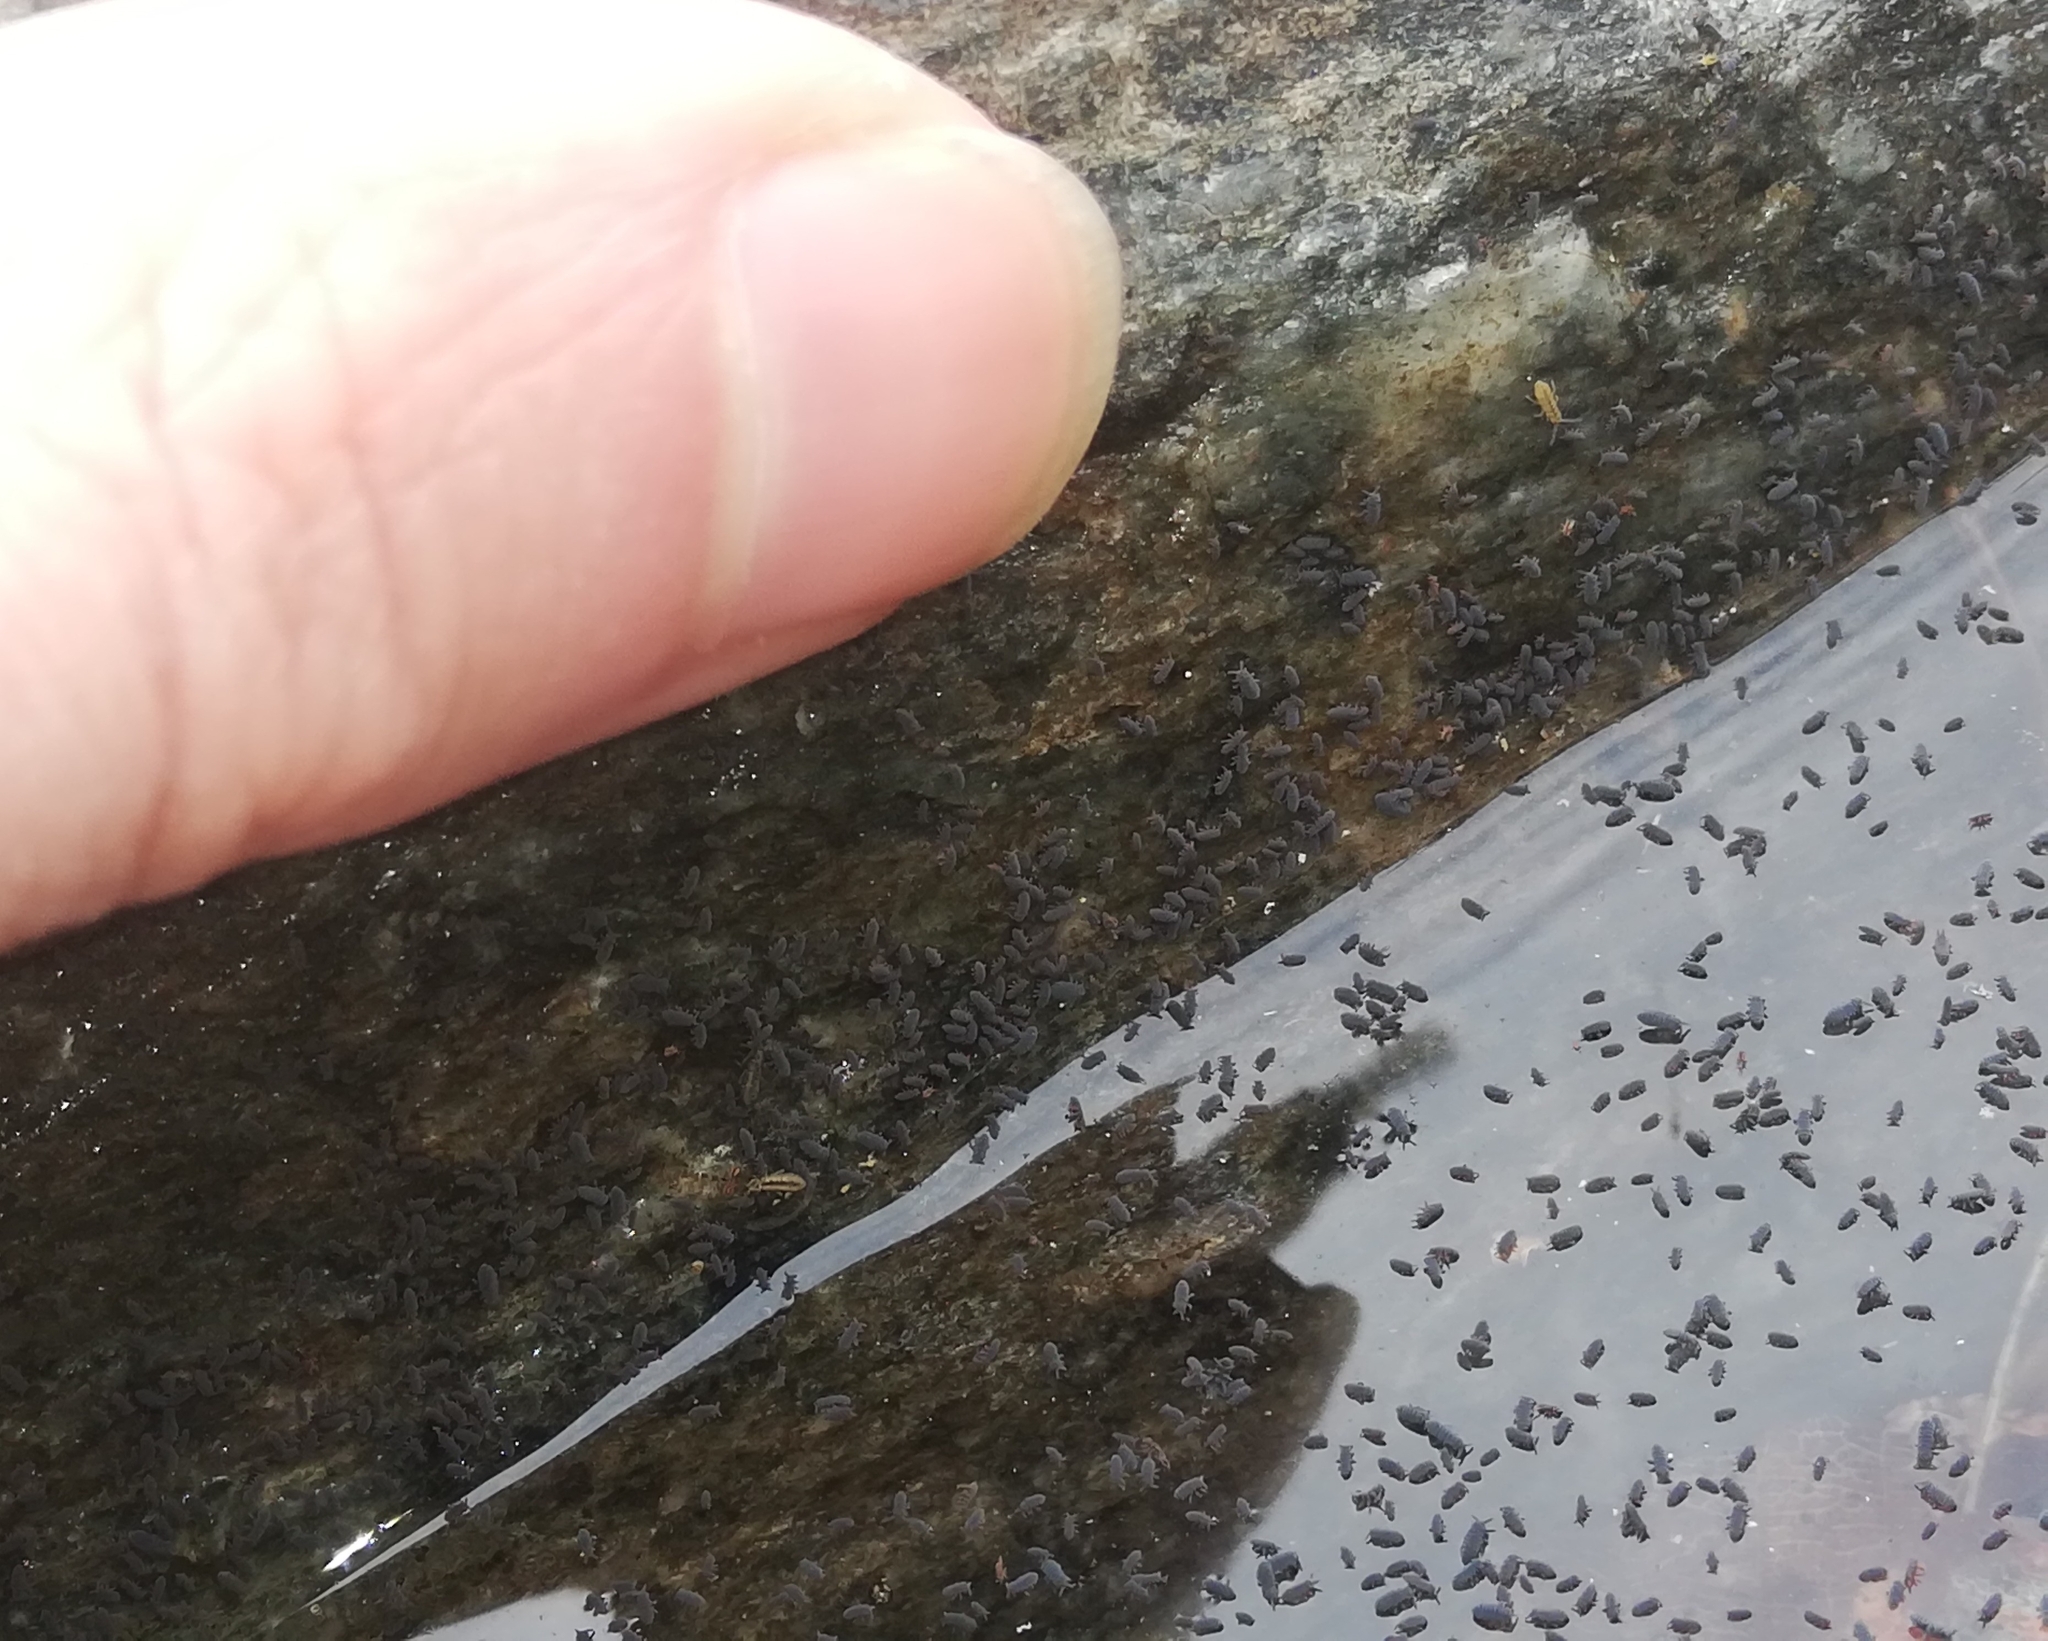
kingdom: Animalia
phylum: Arthropoda
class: Collembola
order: Poduromorpha
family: Poduridae
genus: Podura
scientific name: Podura aquatica
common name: Water springtail
